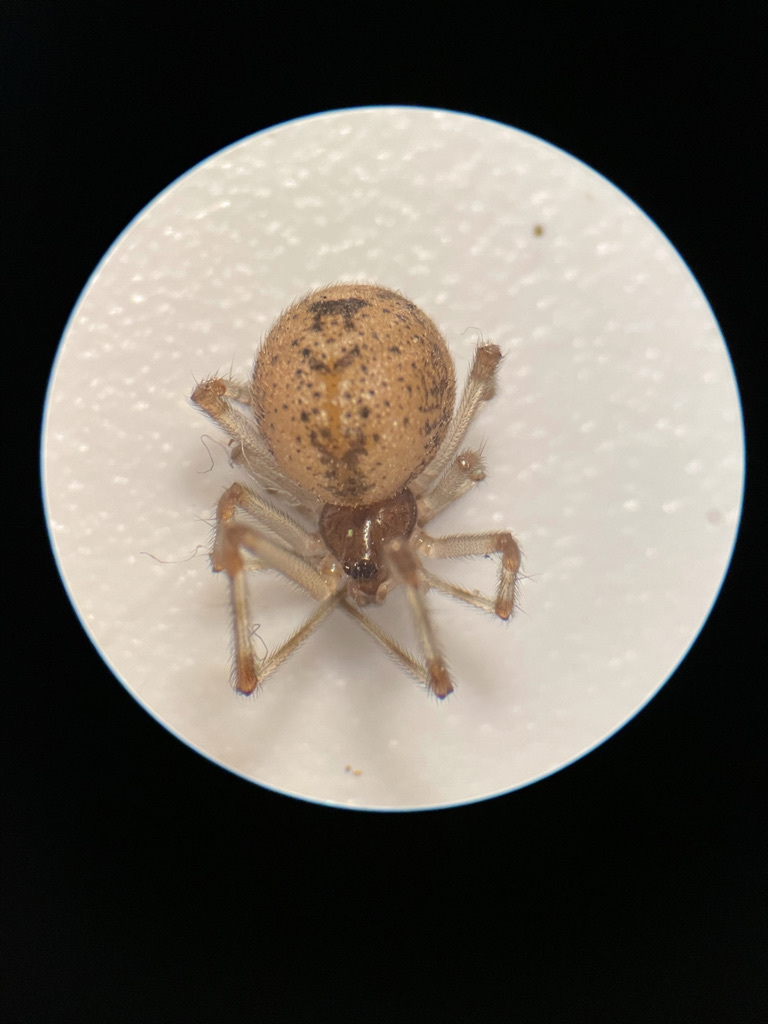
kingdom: Animalia
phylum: Arthropoda
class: Arachnida
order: Araneae
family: Theridiidae
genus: Parasteatoda
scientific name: Parasteatoda tepidariorum
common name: Common house spider
